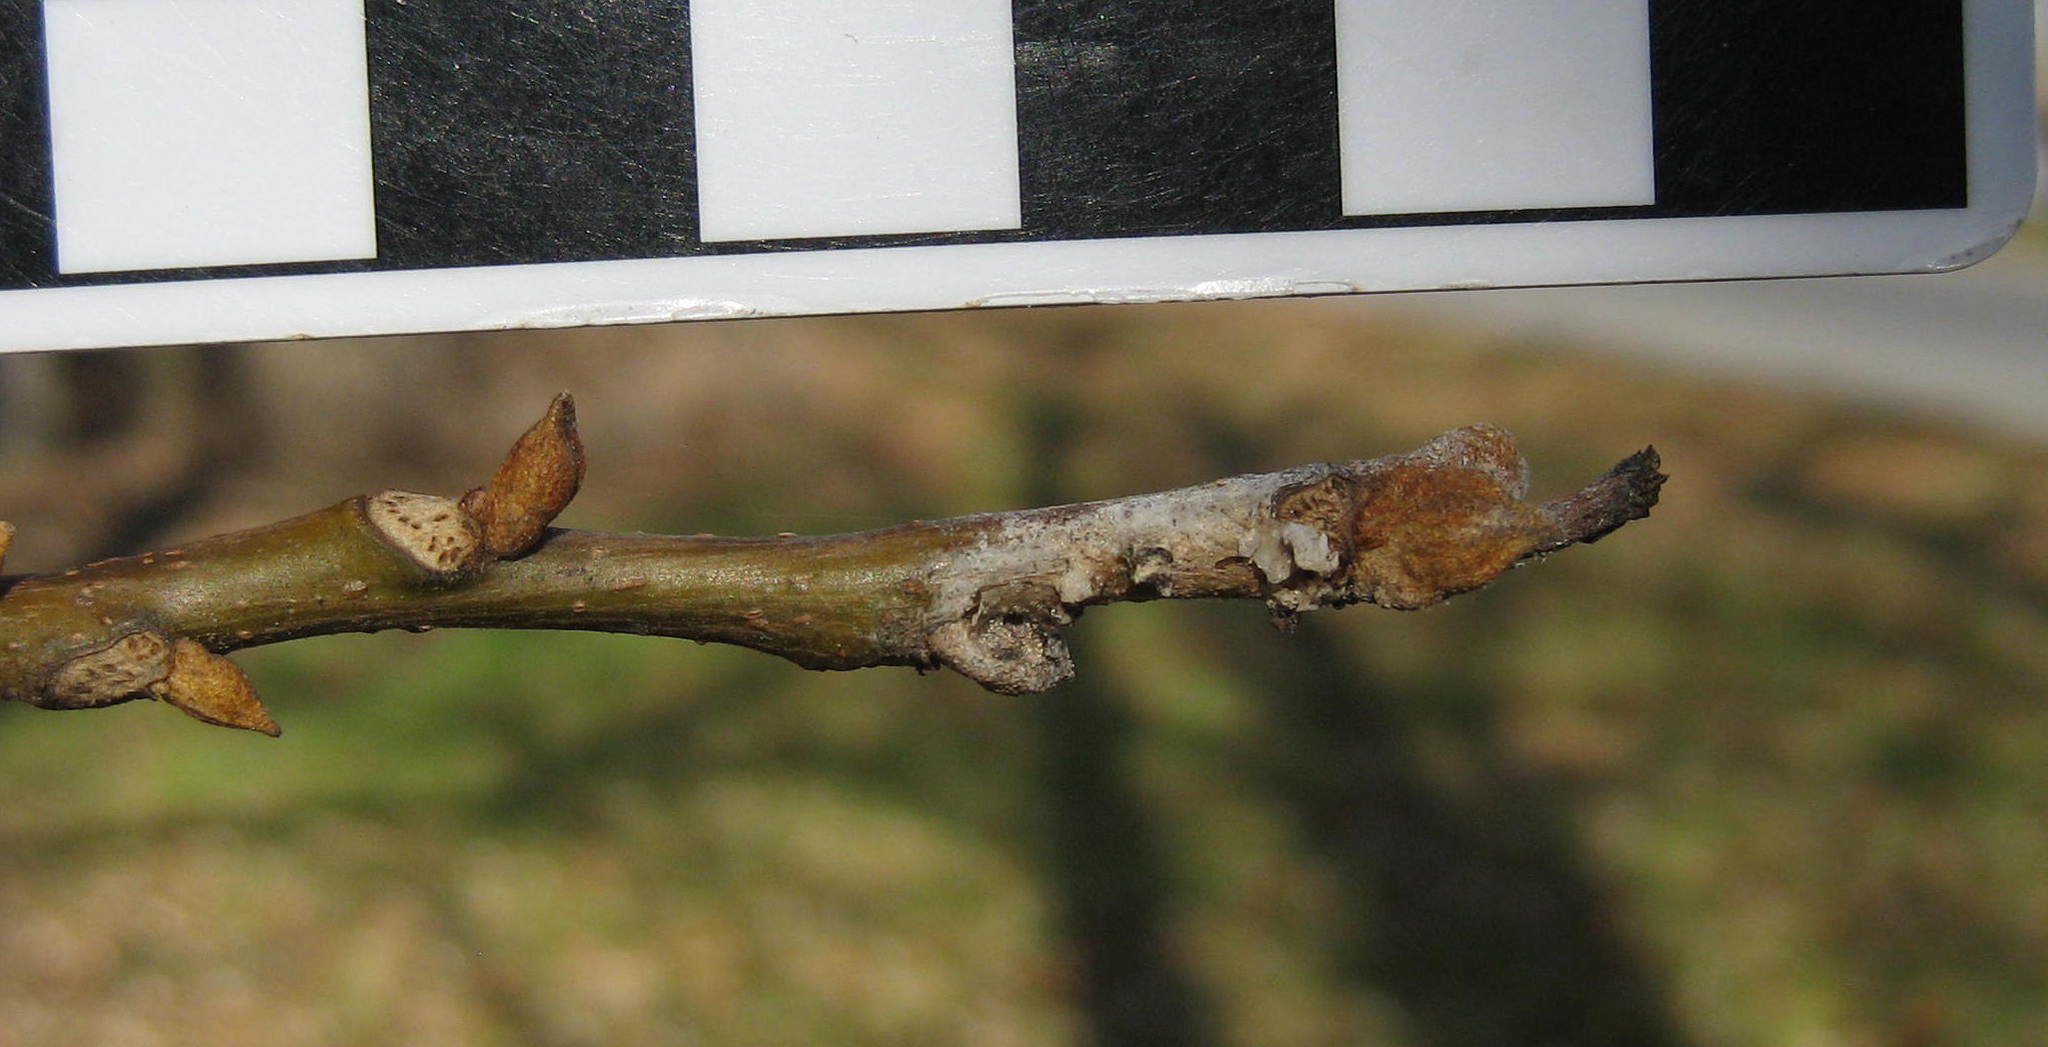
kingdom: Plantae
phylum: Tracheophyta
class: Magnoliopsida
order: Fagales
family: Juglandaceae
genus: Carya
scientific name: Carya cordiformis
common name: Bitternut hickory
